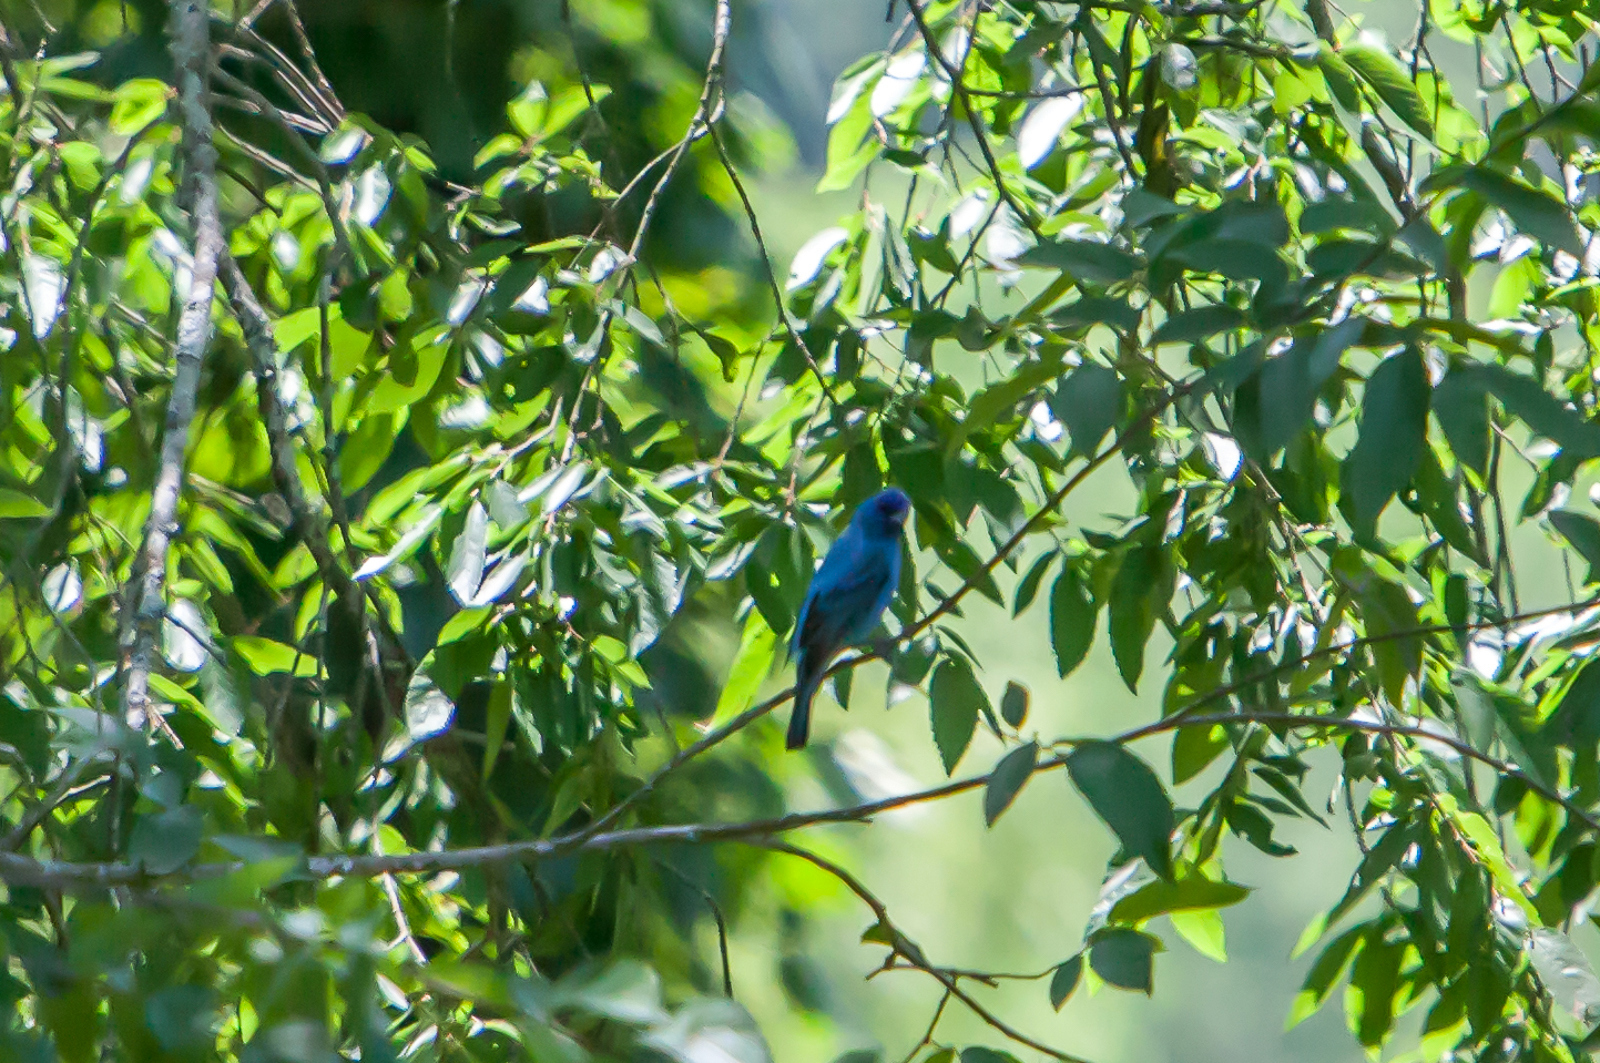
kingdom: Animalia
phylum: Chordata
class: Aves
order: Passeriformes
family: Cardinalidae
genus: Passerina
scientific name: Passerina cyanea
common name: Indigo bunting
